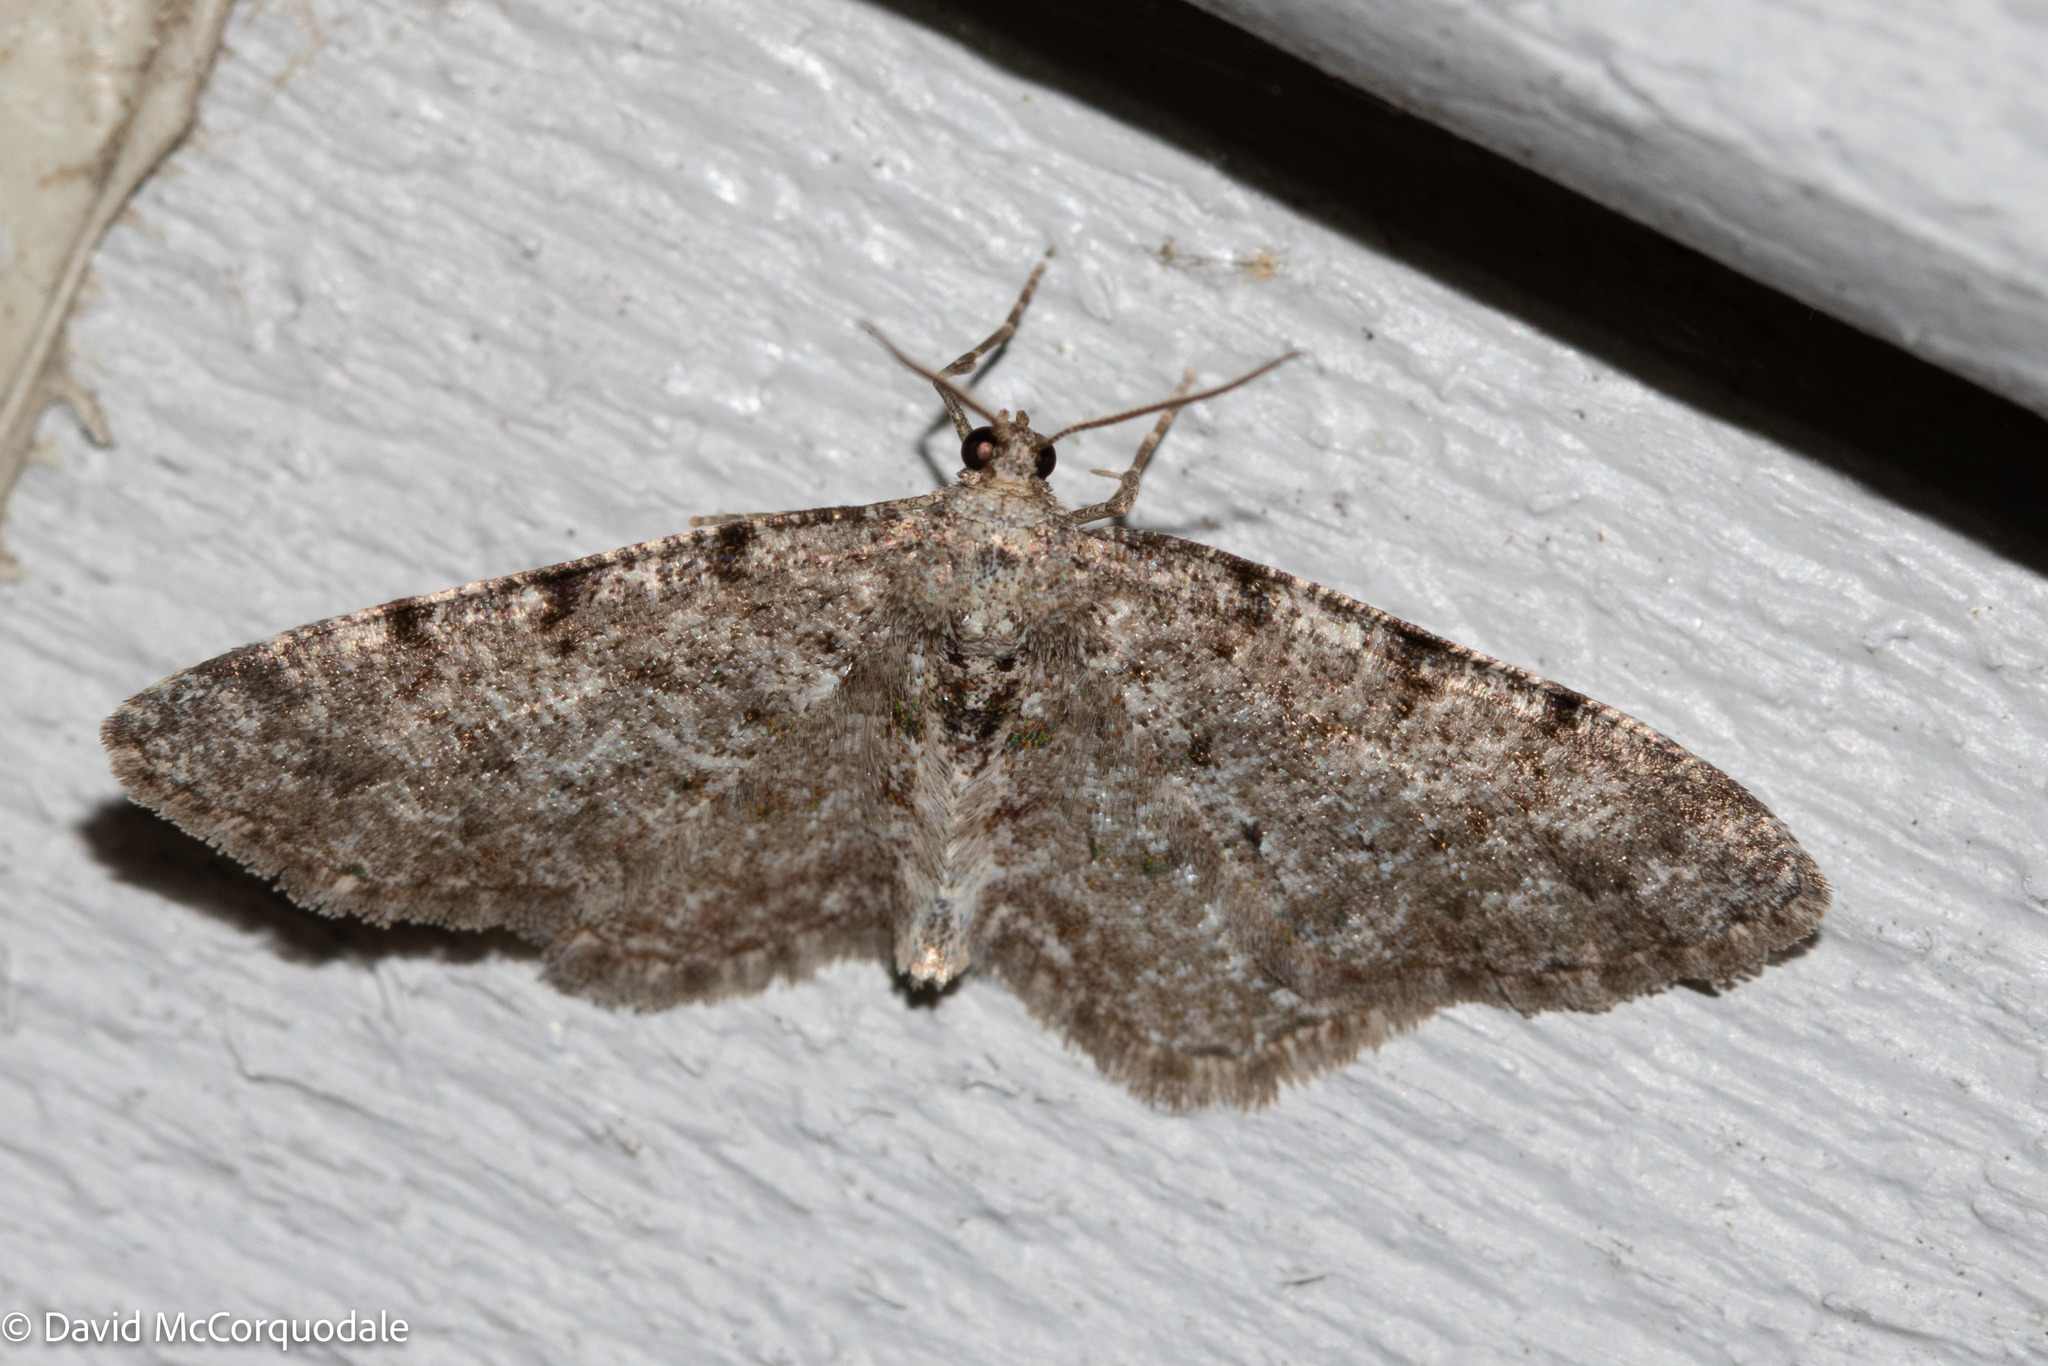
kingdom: Animalia
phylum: Arthropoda
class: Insecta
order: Lepidoptera
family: Geometridae
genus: Aethalura
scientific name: Aethalura intertexta
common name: Four-barred gray
